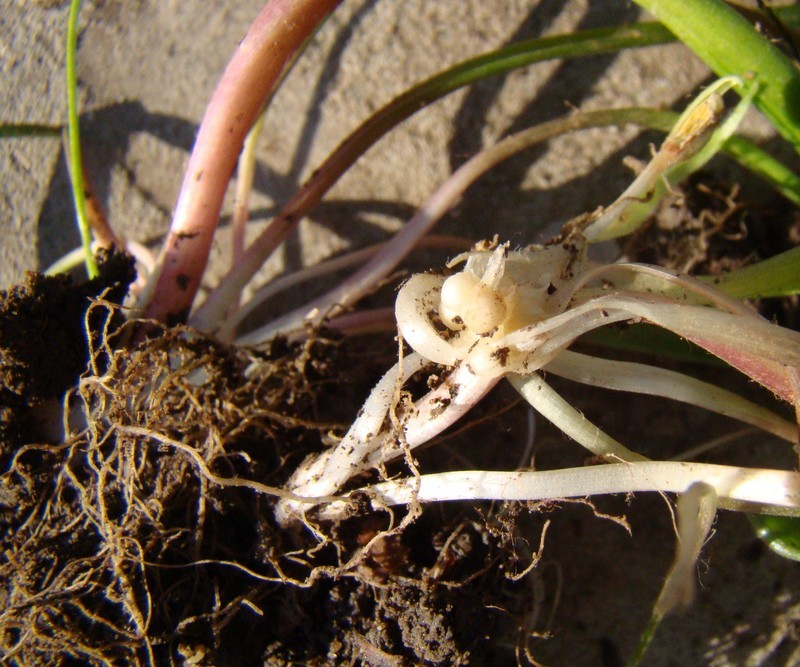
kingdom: Plantae
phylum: Tracheophyta
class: Liliopsida
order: Liliales
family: Liliaceae
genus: Gagea
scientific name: Gagea villosa
